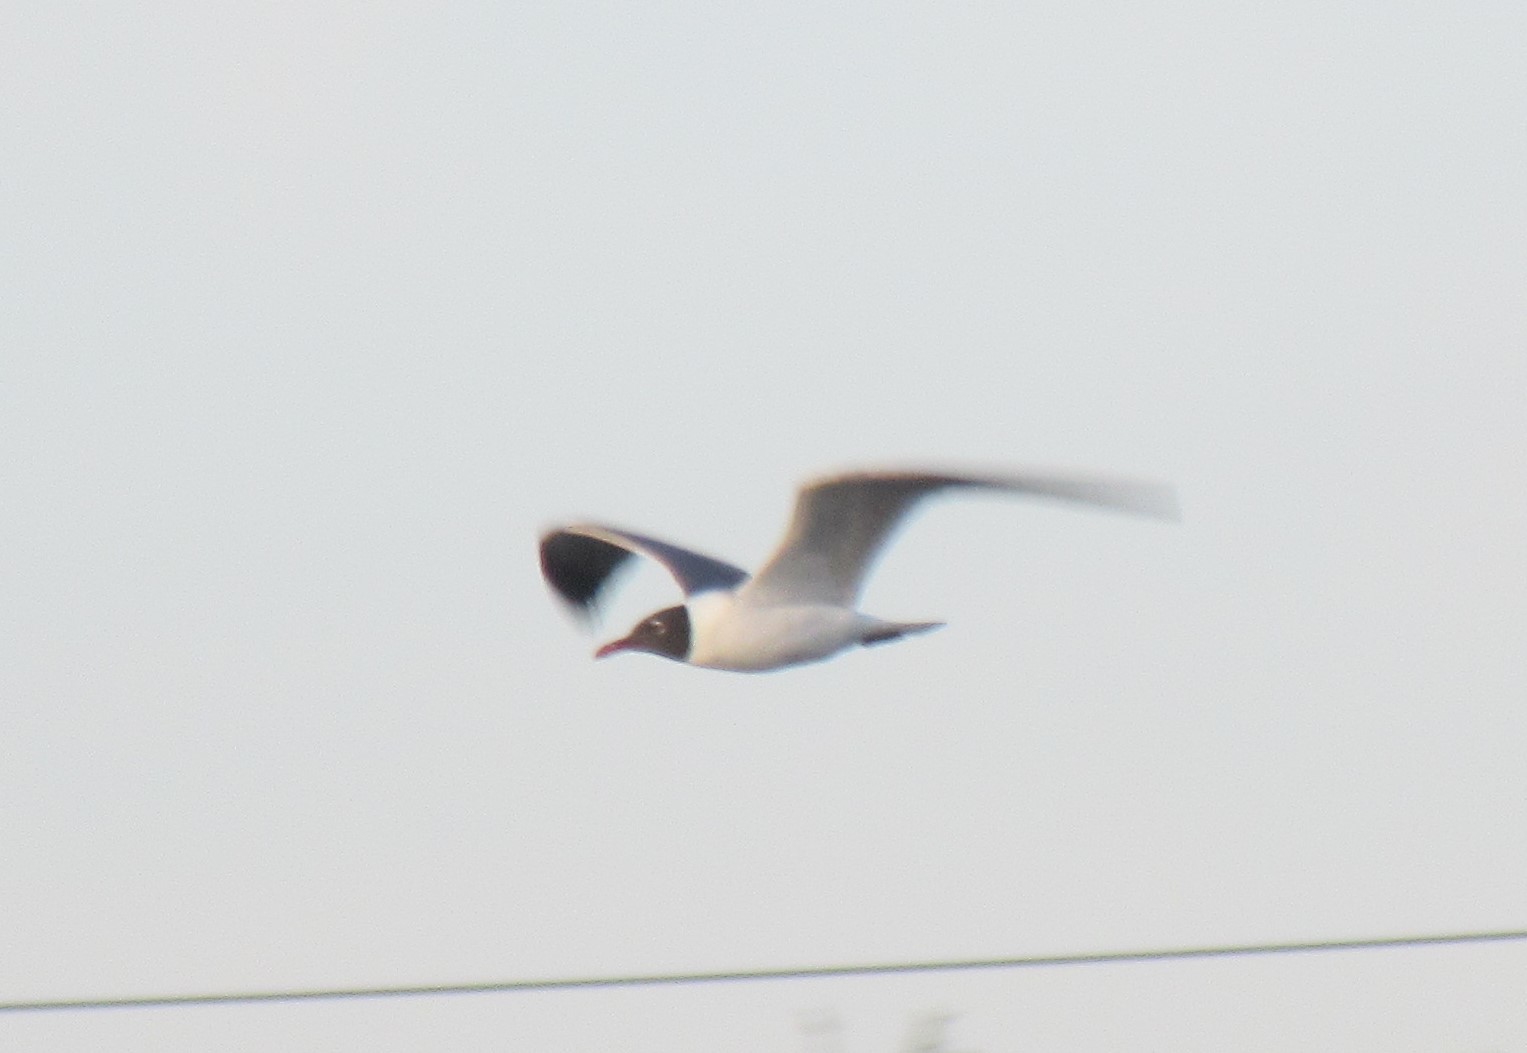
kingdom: Animalia
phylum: Chordata
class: Aves
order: Charadriiformes
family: Laridae
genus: Leucophaeus
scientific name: Leucophaeus atricilla
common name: Laughing gull
